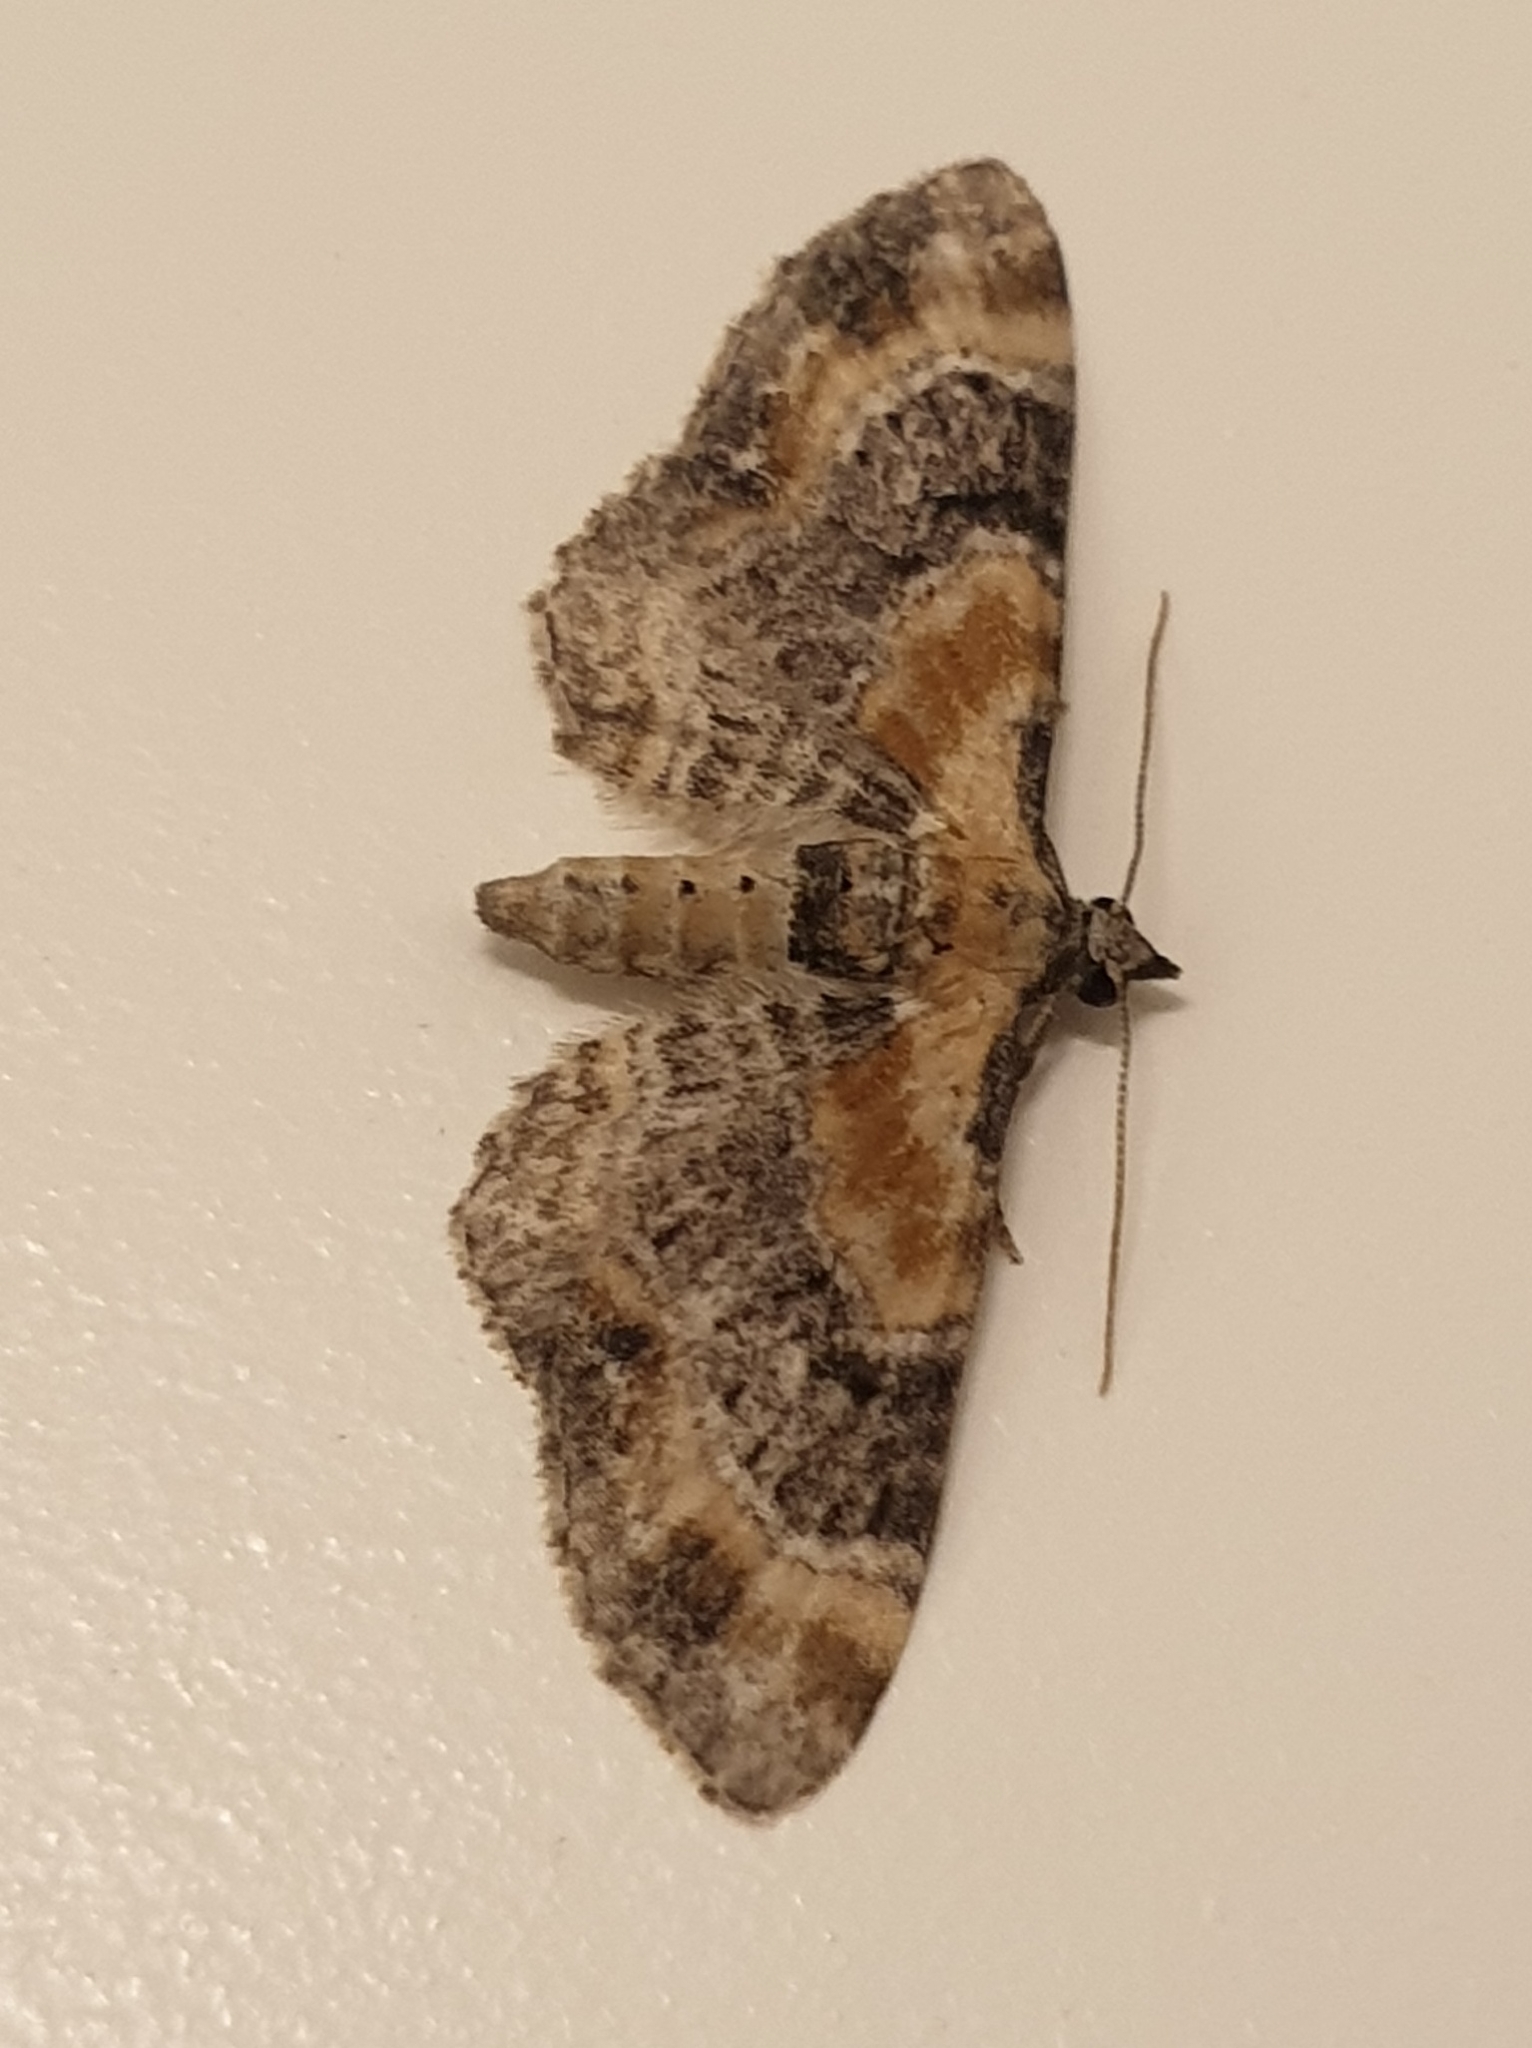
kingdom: Animalia
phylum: Arthropoda
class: Insecta
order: Lepidoptera
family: Geometridae
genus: Eupithecia
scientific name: Eupithecia linariata
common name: Toadflax pug
